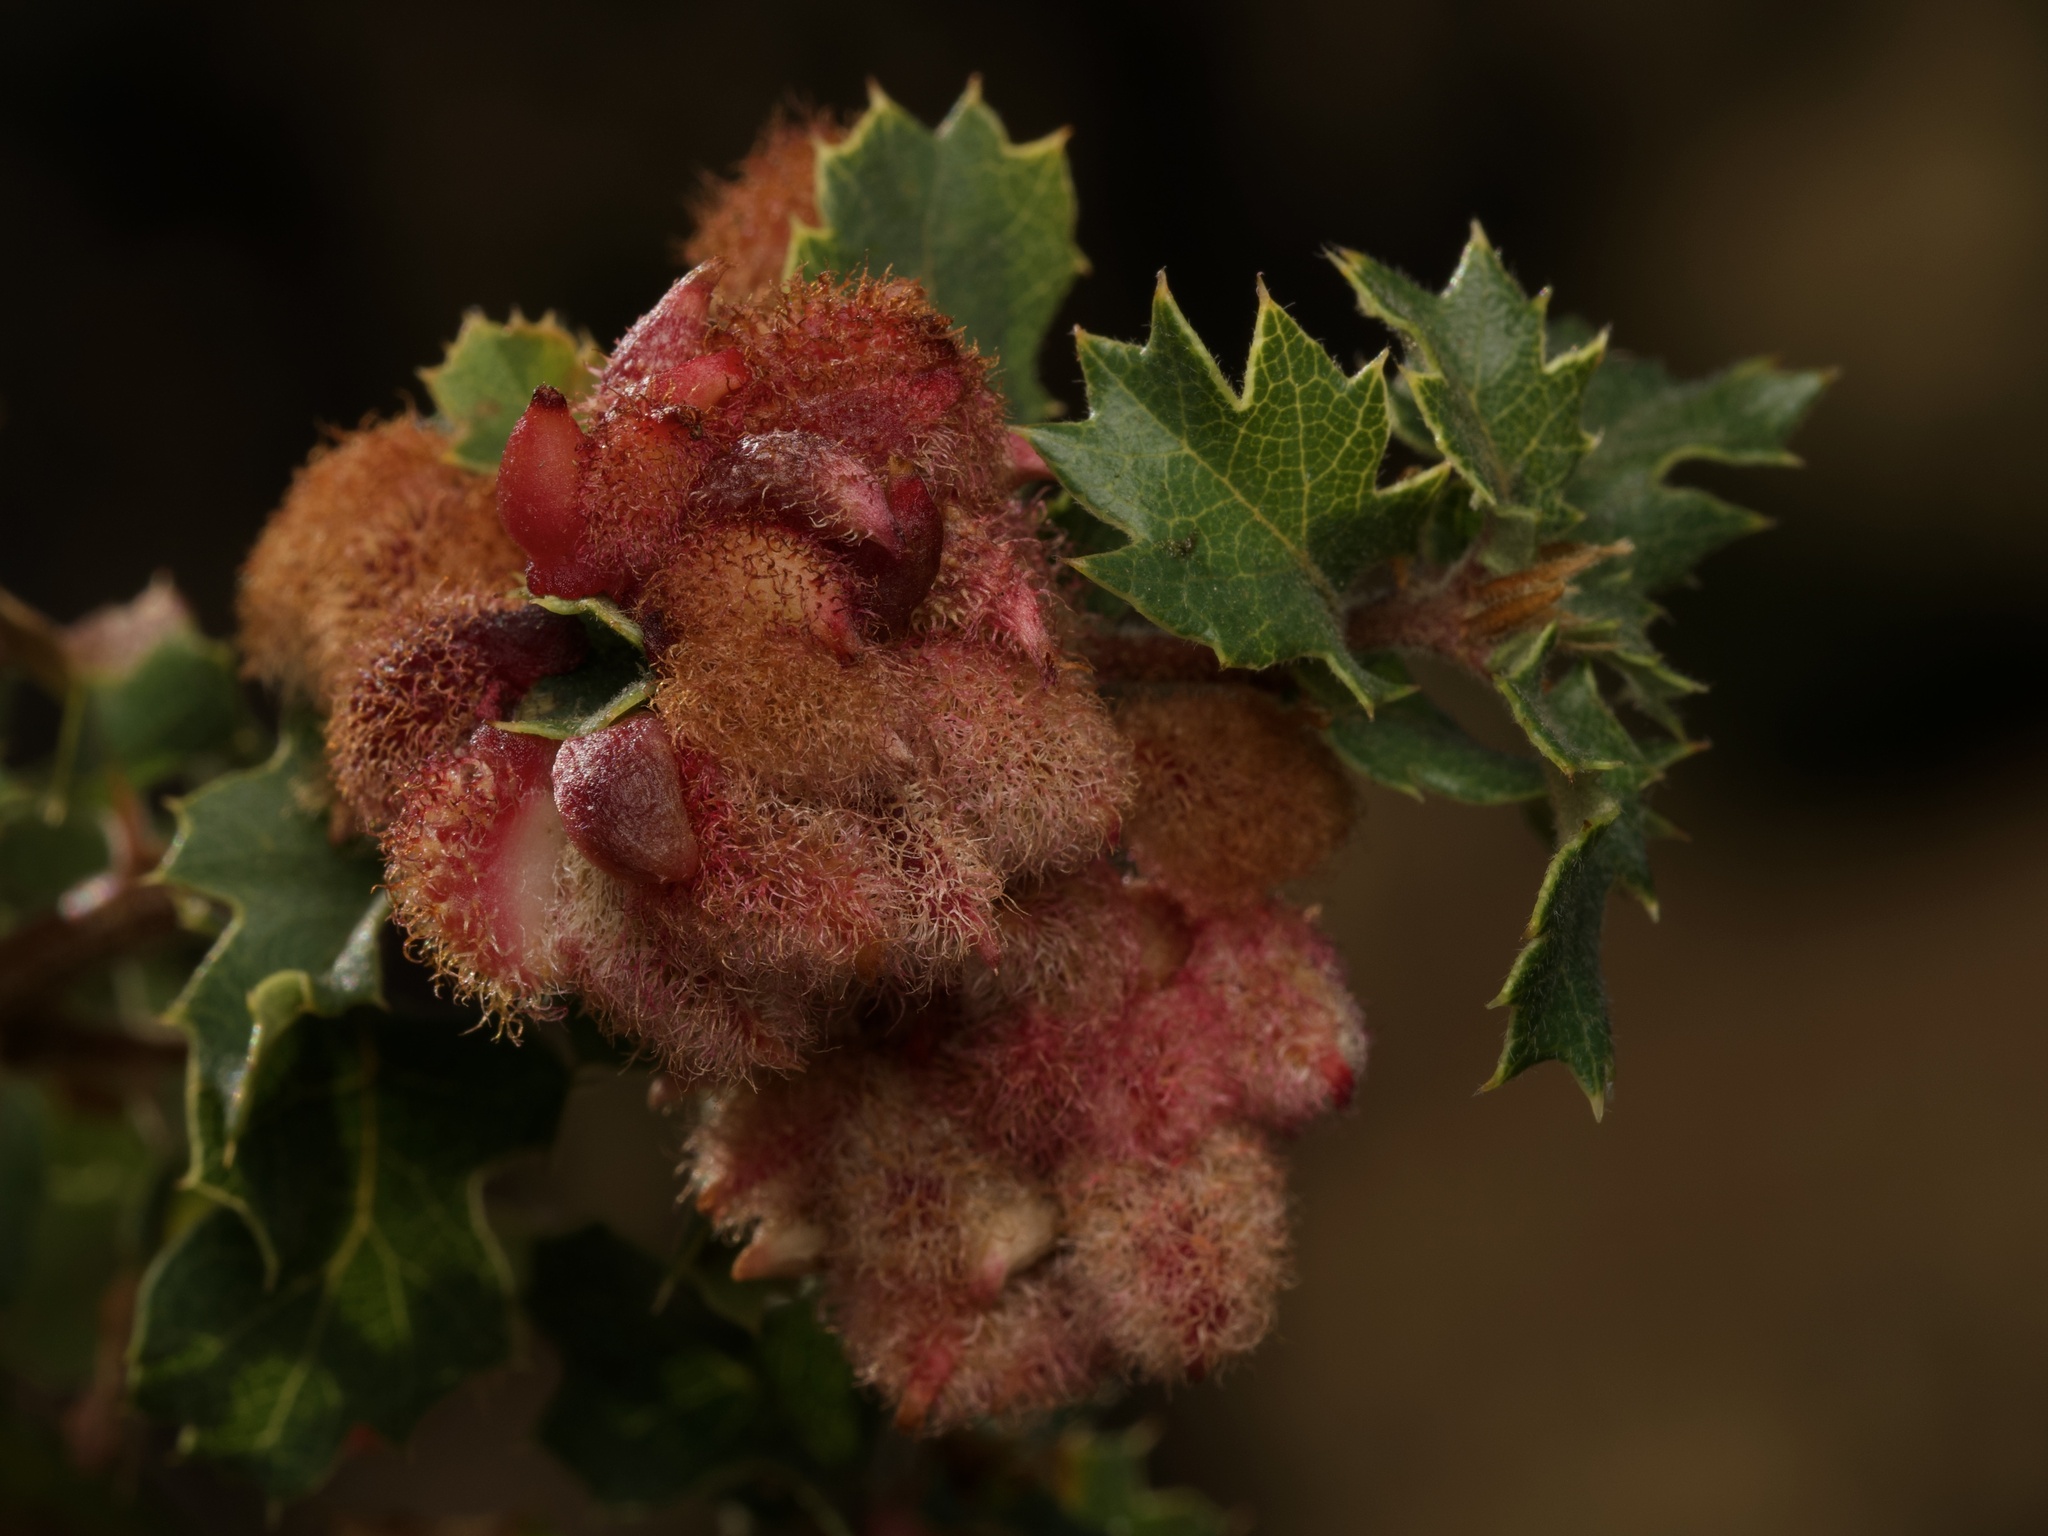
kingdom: Animalia
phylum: Arthropoda
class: Insecta
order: Hymenoptera
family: Cynipidae
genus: Andricus
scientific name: Andricus
